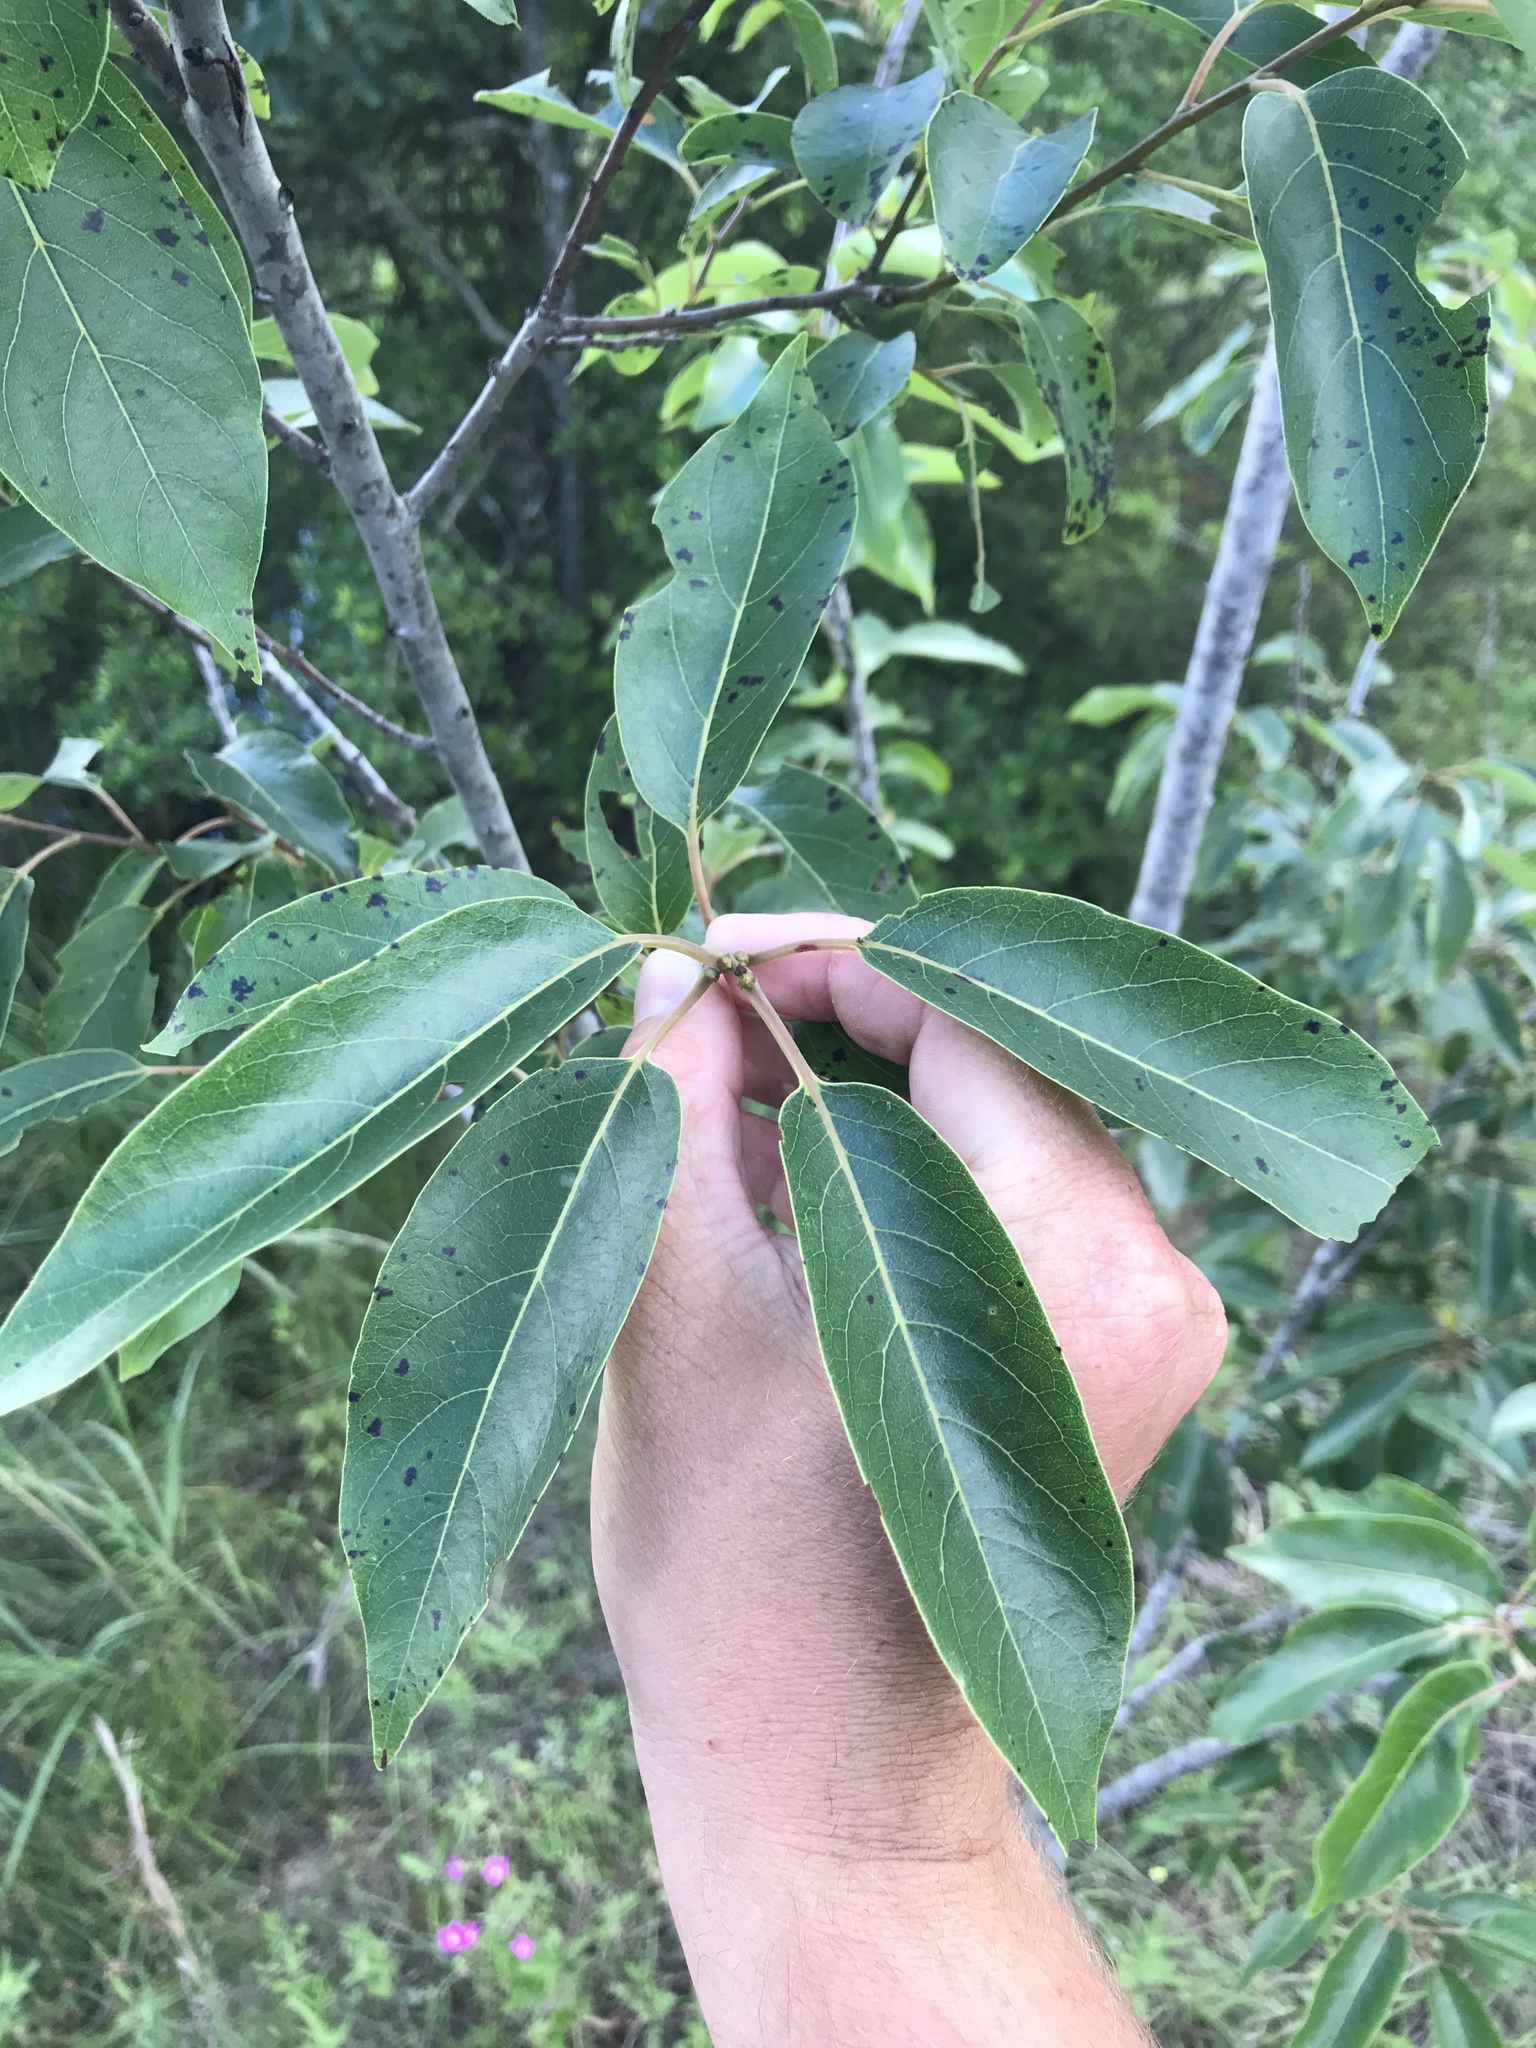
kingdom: Plantae
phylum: Tracheophyta
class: Magnoliopsida
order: Ericales
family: Ebenaceae
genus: Diospyros
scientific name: Diospyros virginiana
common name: Persimmon
